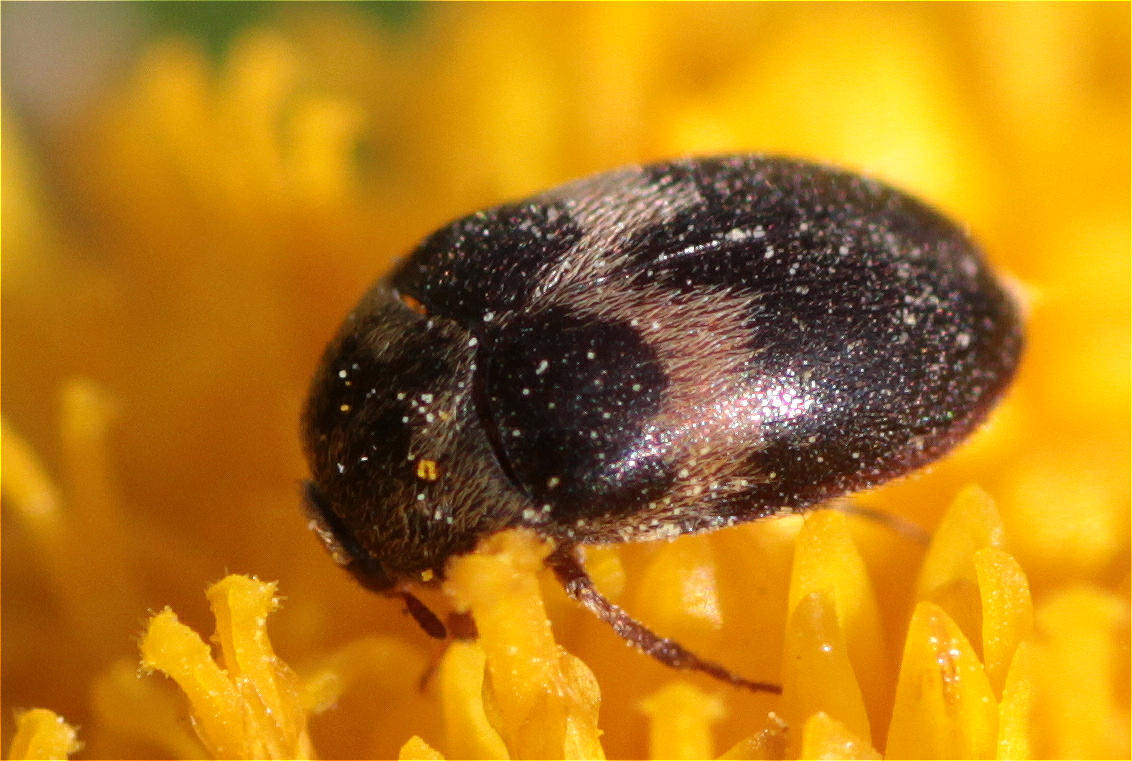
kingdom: Animalia
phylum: Arthropoda
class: Insecta
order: Coleoptera
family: Dermestidae
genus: Attagenus
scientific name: Attagenus fasciatus
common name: Wardrobe beetle
